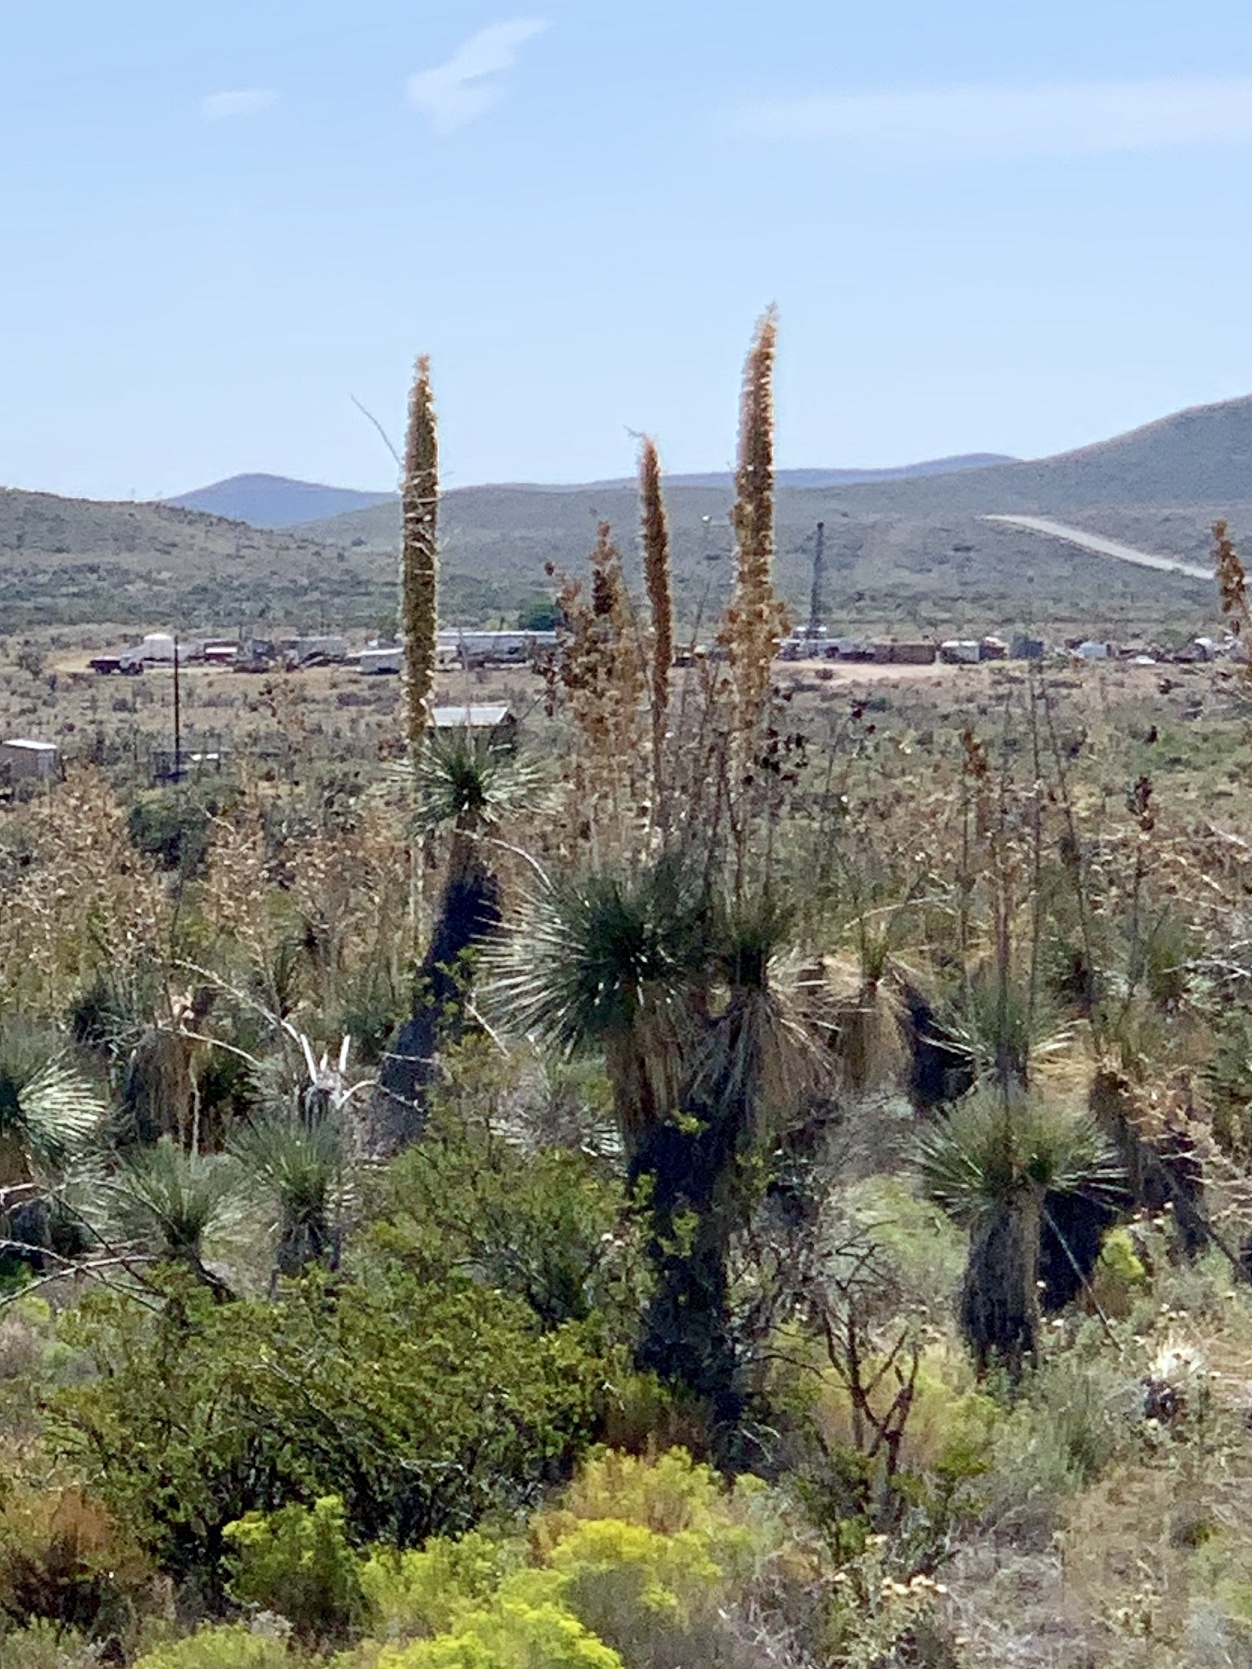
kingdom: Plantae
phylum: Tracheophyta
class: Liliopsida
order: Asparagales
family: Asparagaceae
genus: Yucca
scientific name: Yucca elata
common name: Palmella
